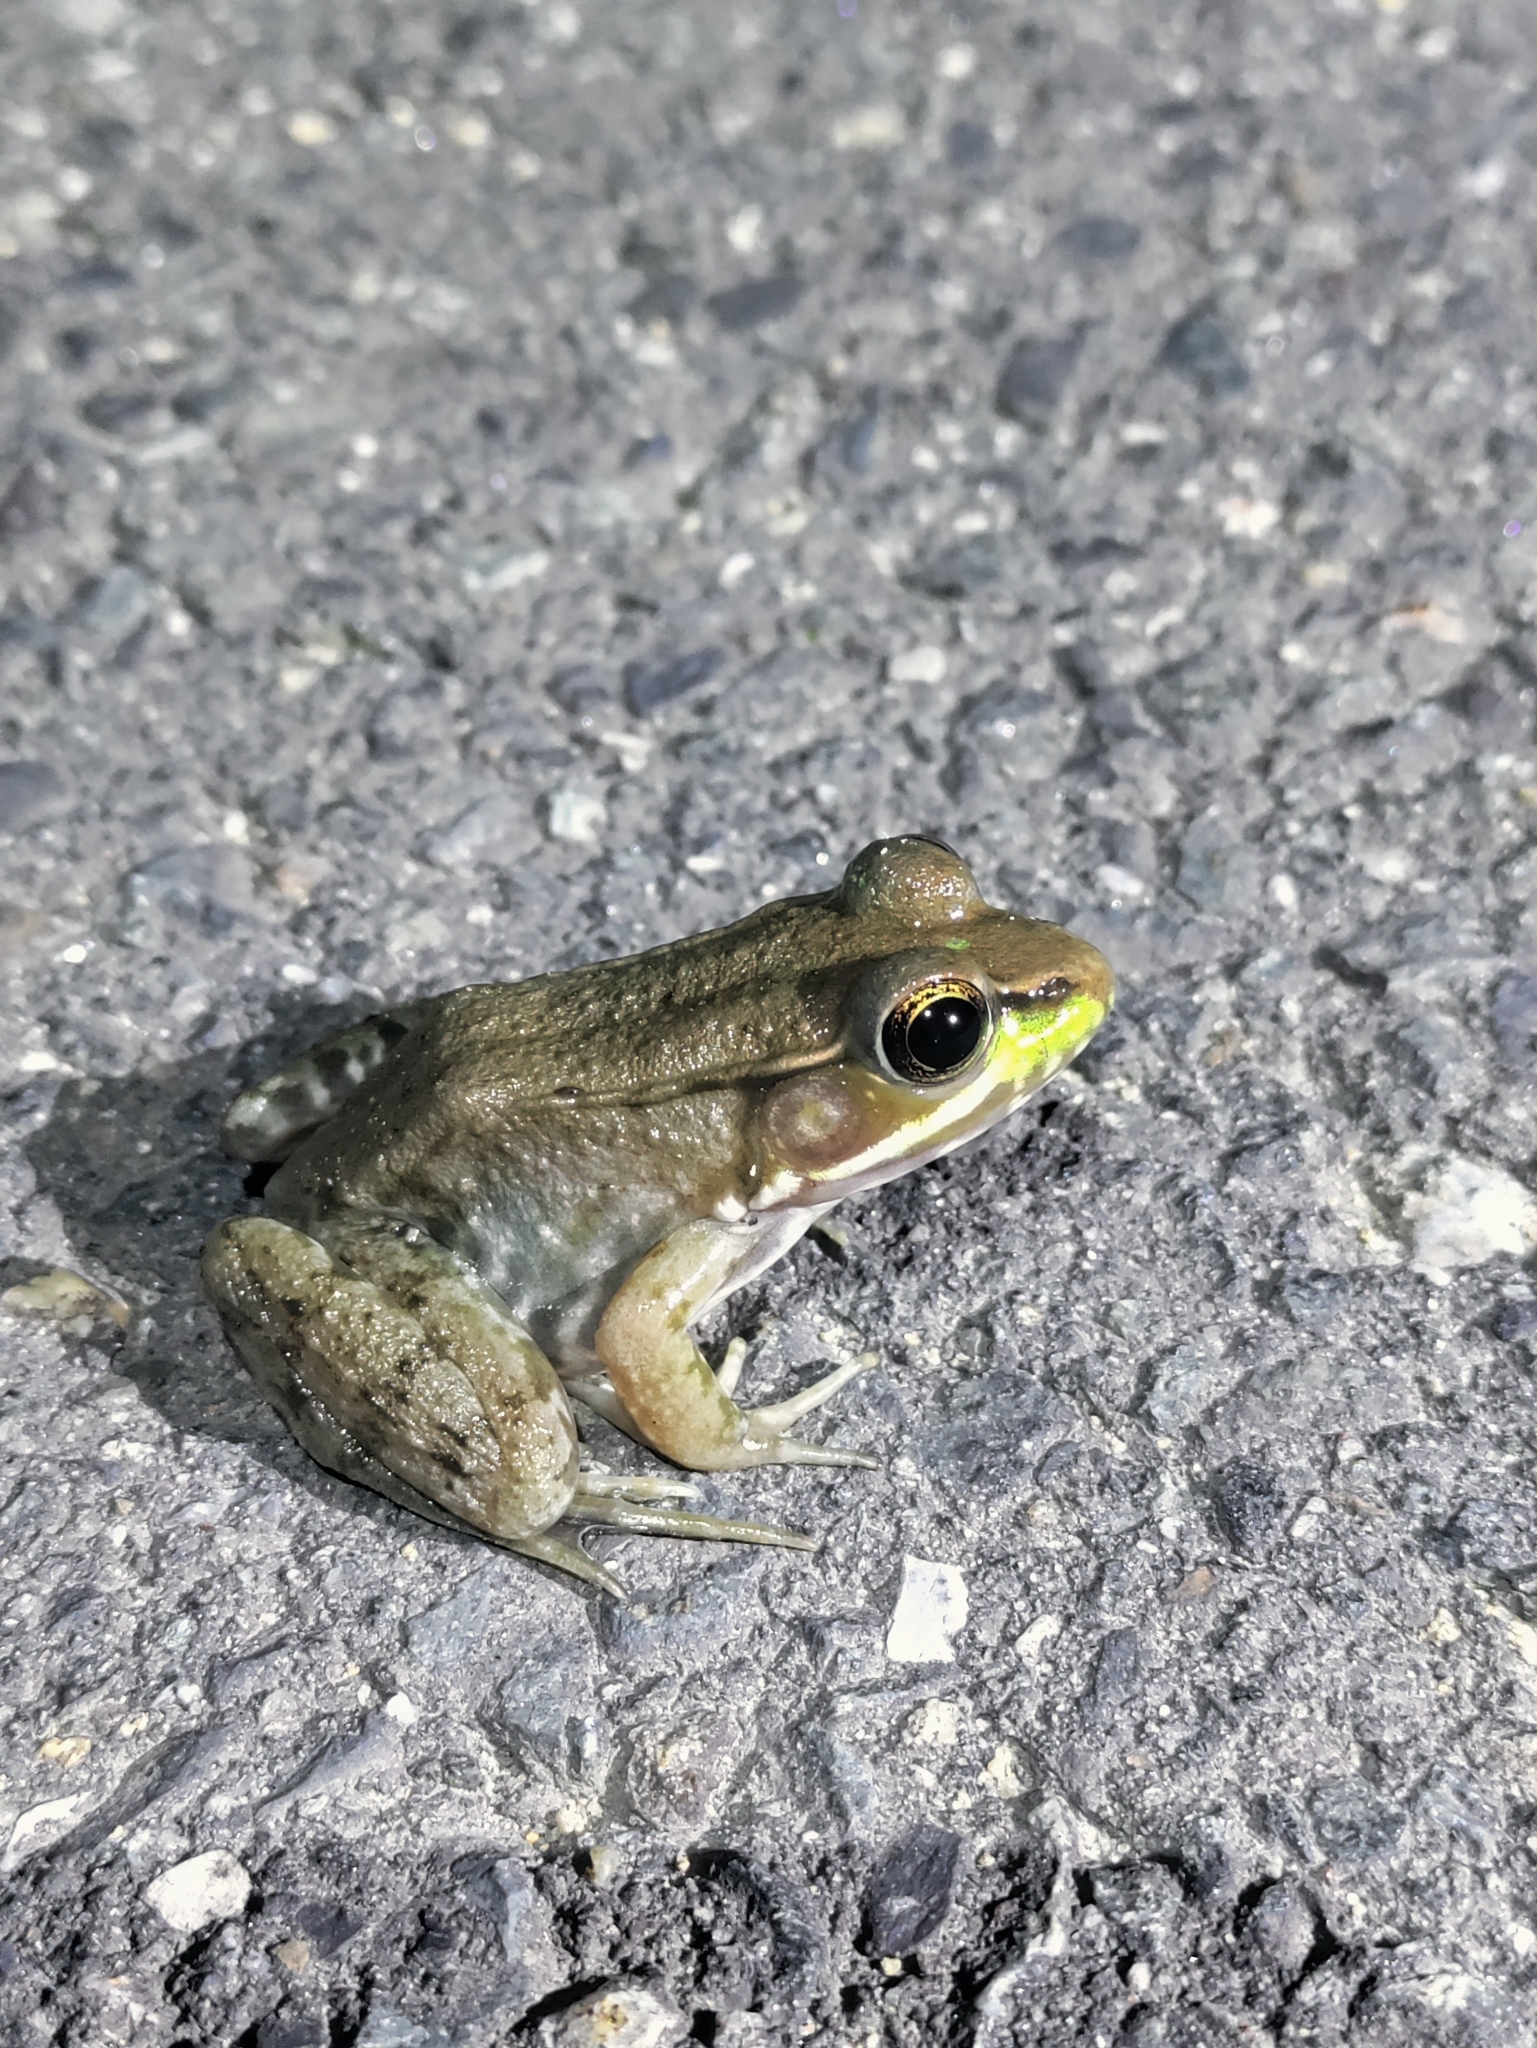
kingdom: Animalia
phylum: Chordata
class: Amphibia
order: Anura
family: Ranidae
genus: Lithobates
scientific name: Lithobates clamitans
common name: Green frog
